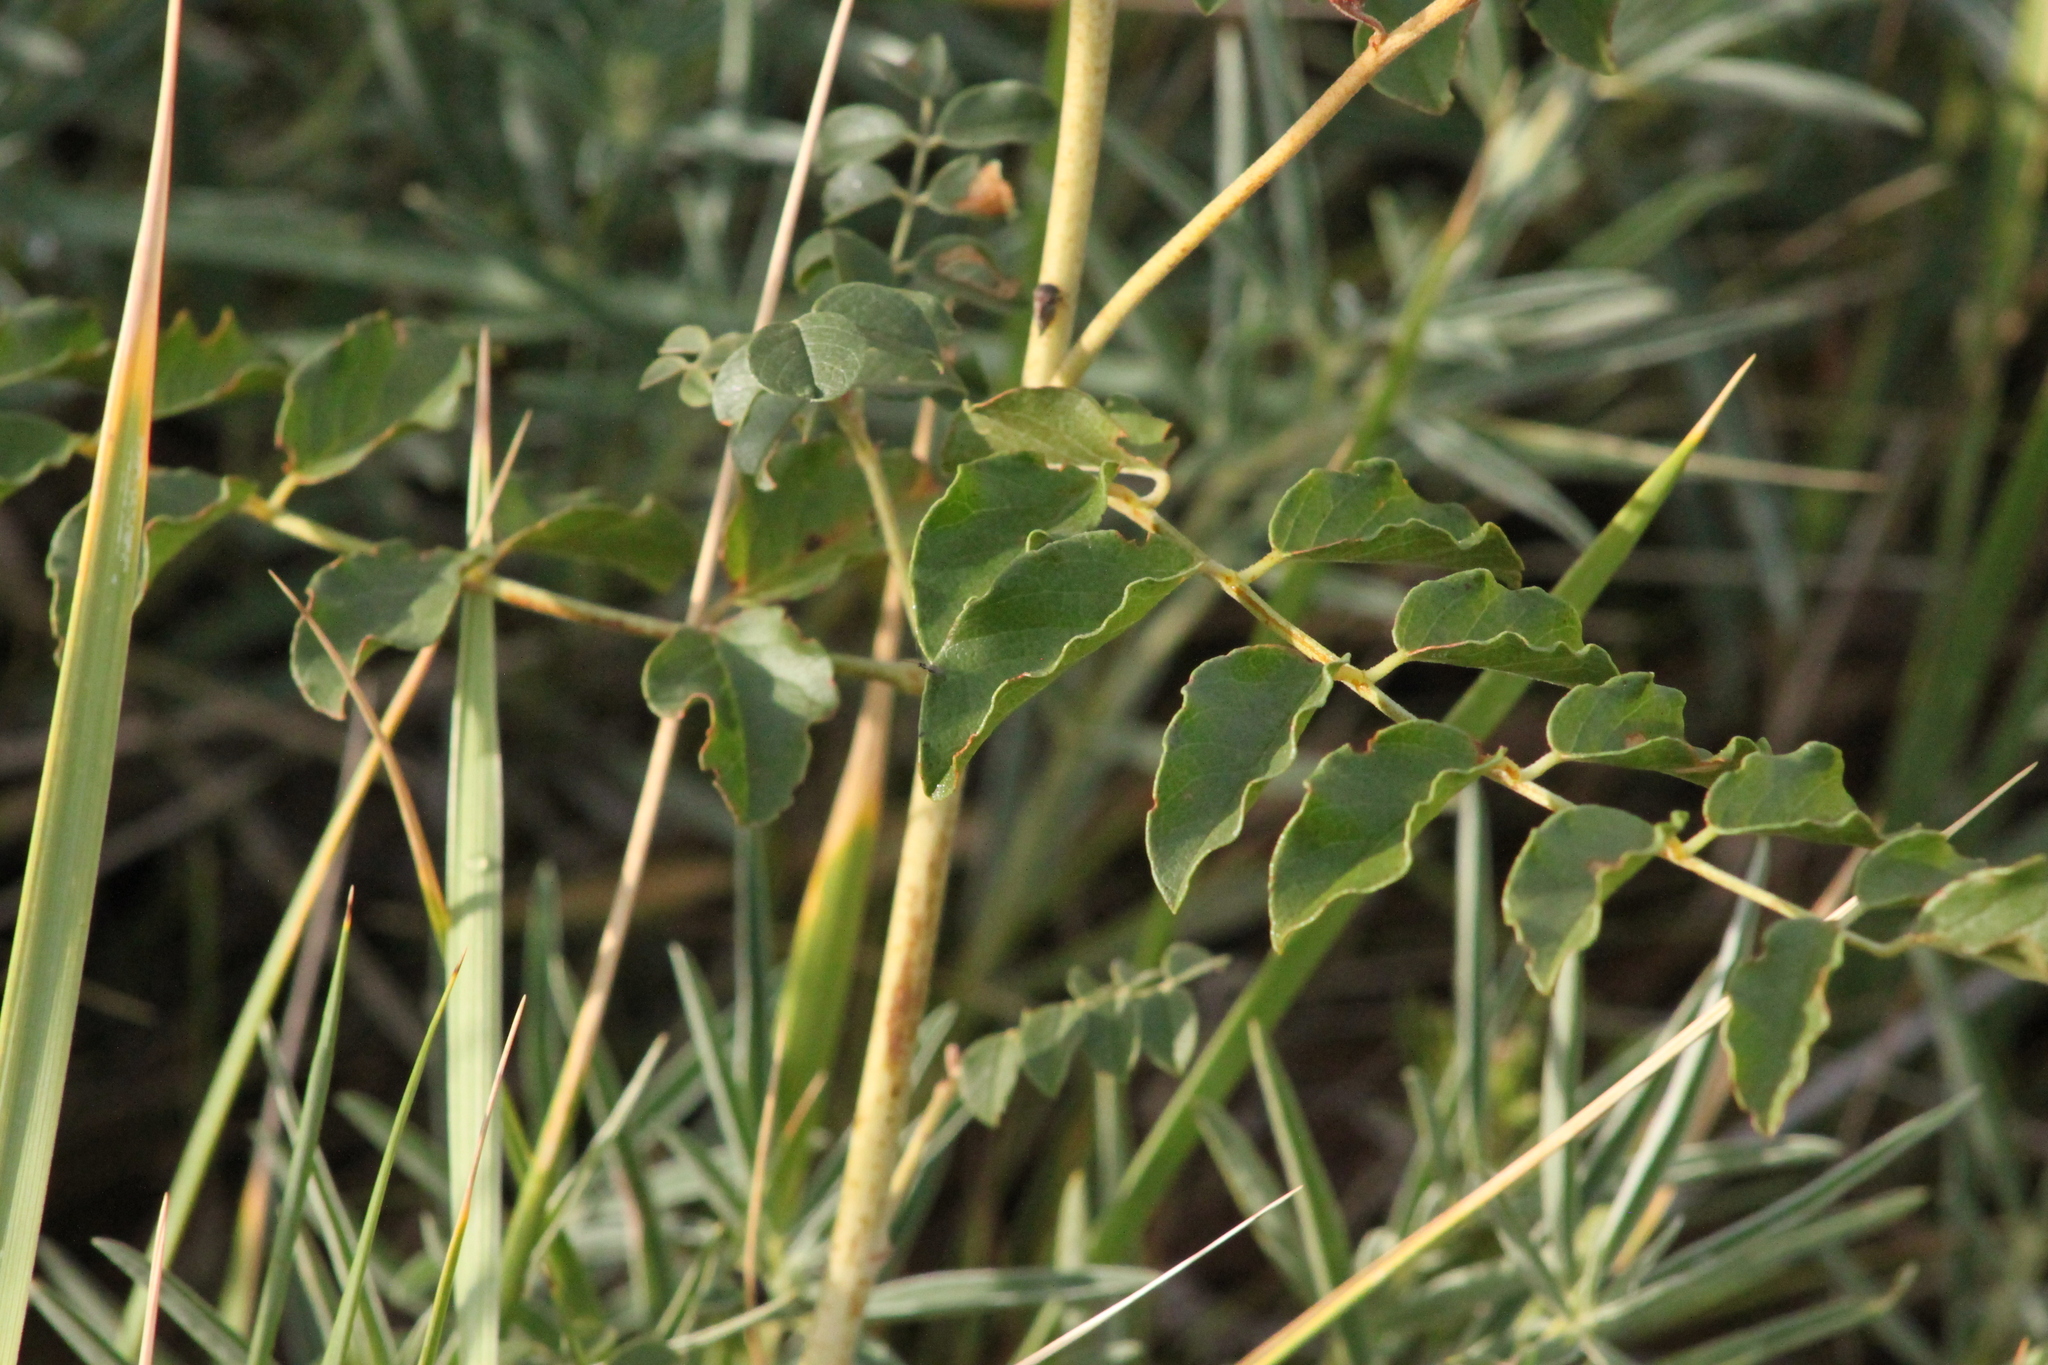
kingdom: Plantae
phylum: Tracheophyta
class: Magnoliopsida
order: Fabales
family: Fabaceae
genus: Glycyrrhiza
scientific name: Glycyrrhiza uralensis
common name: Chinese licorice
